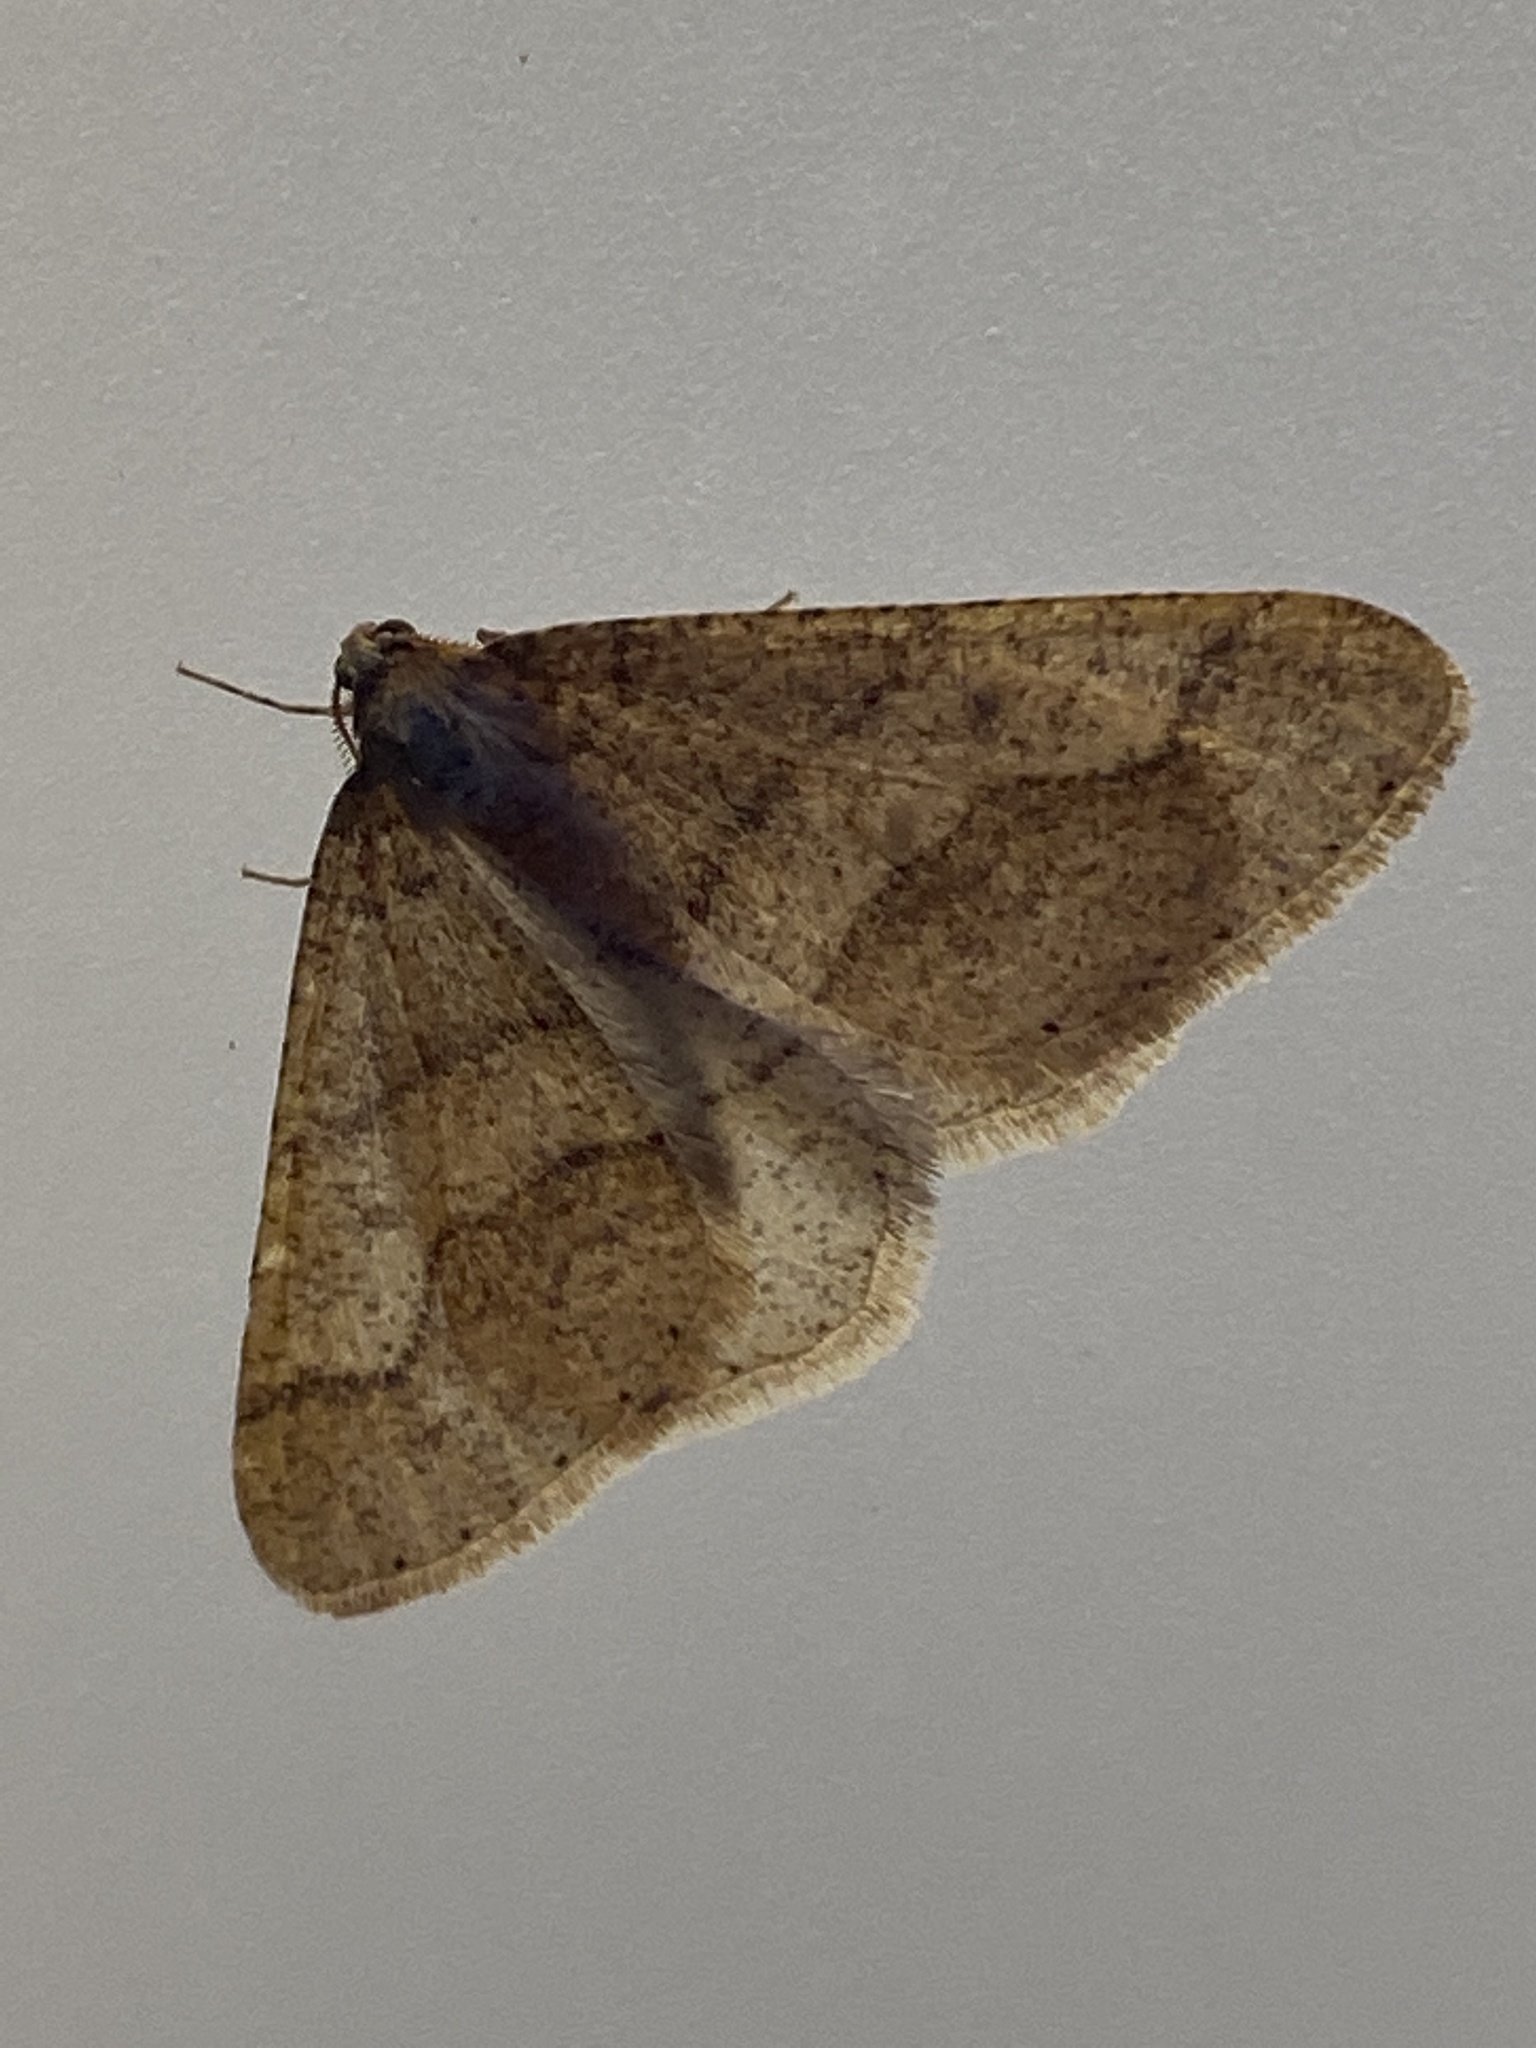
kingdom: Animalia
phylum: Arthropoda
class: Insecta
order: Lepidoptera
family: Geometridae
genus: Agriopis
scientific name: Agriopis marginaria
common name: Dotted border
